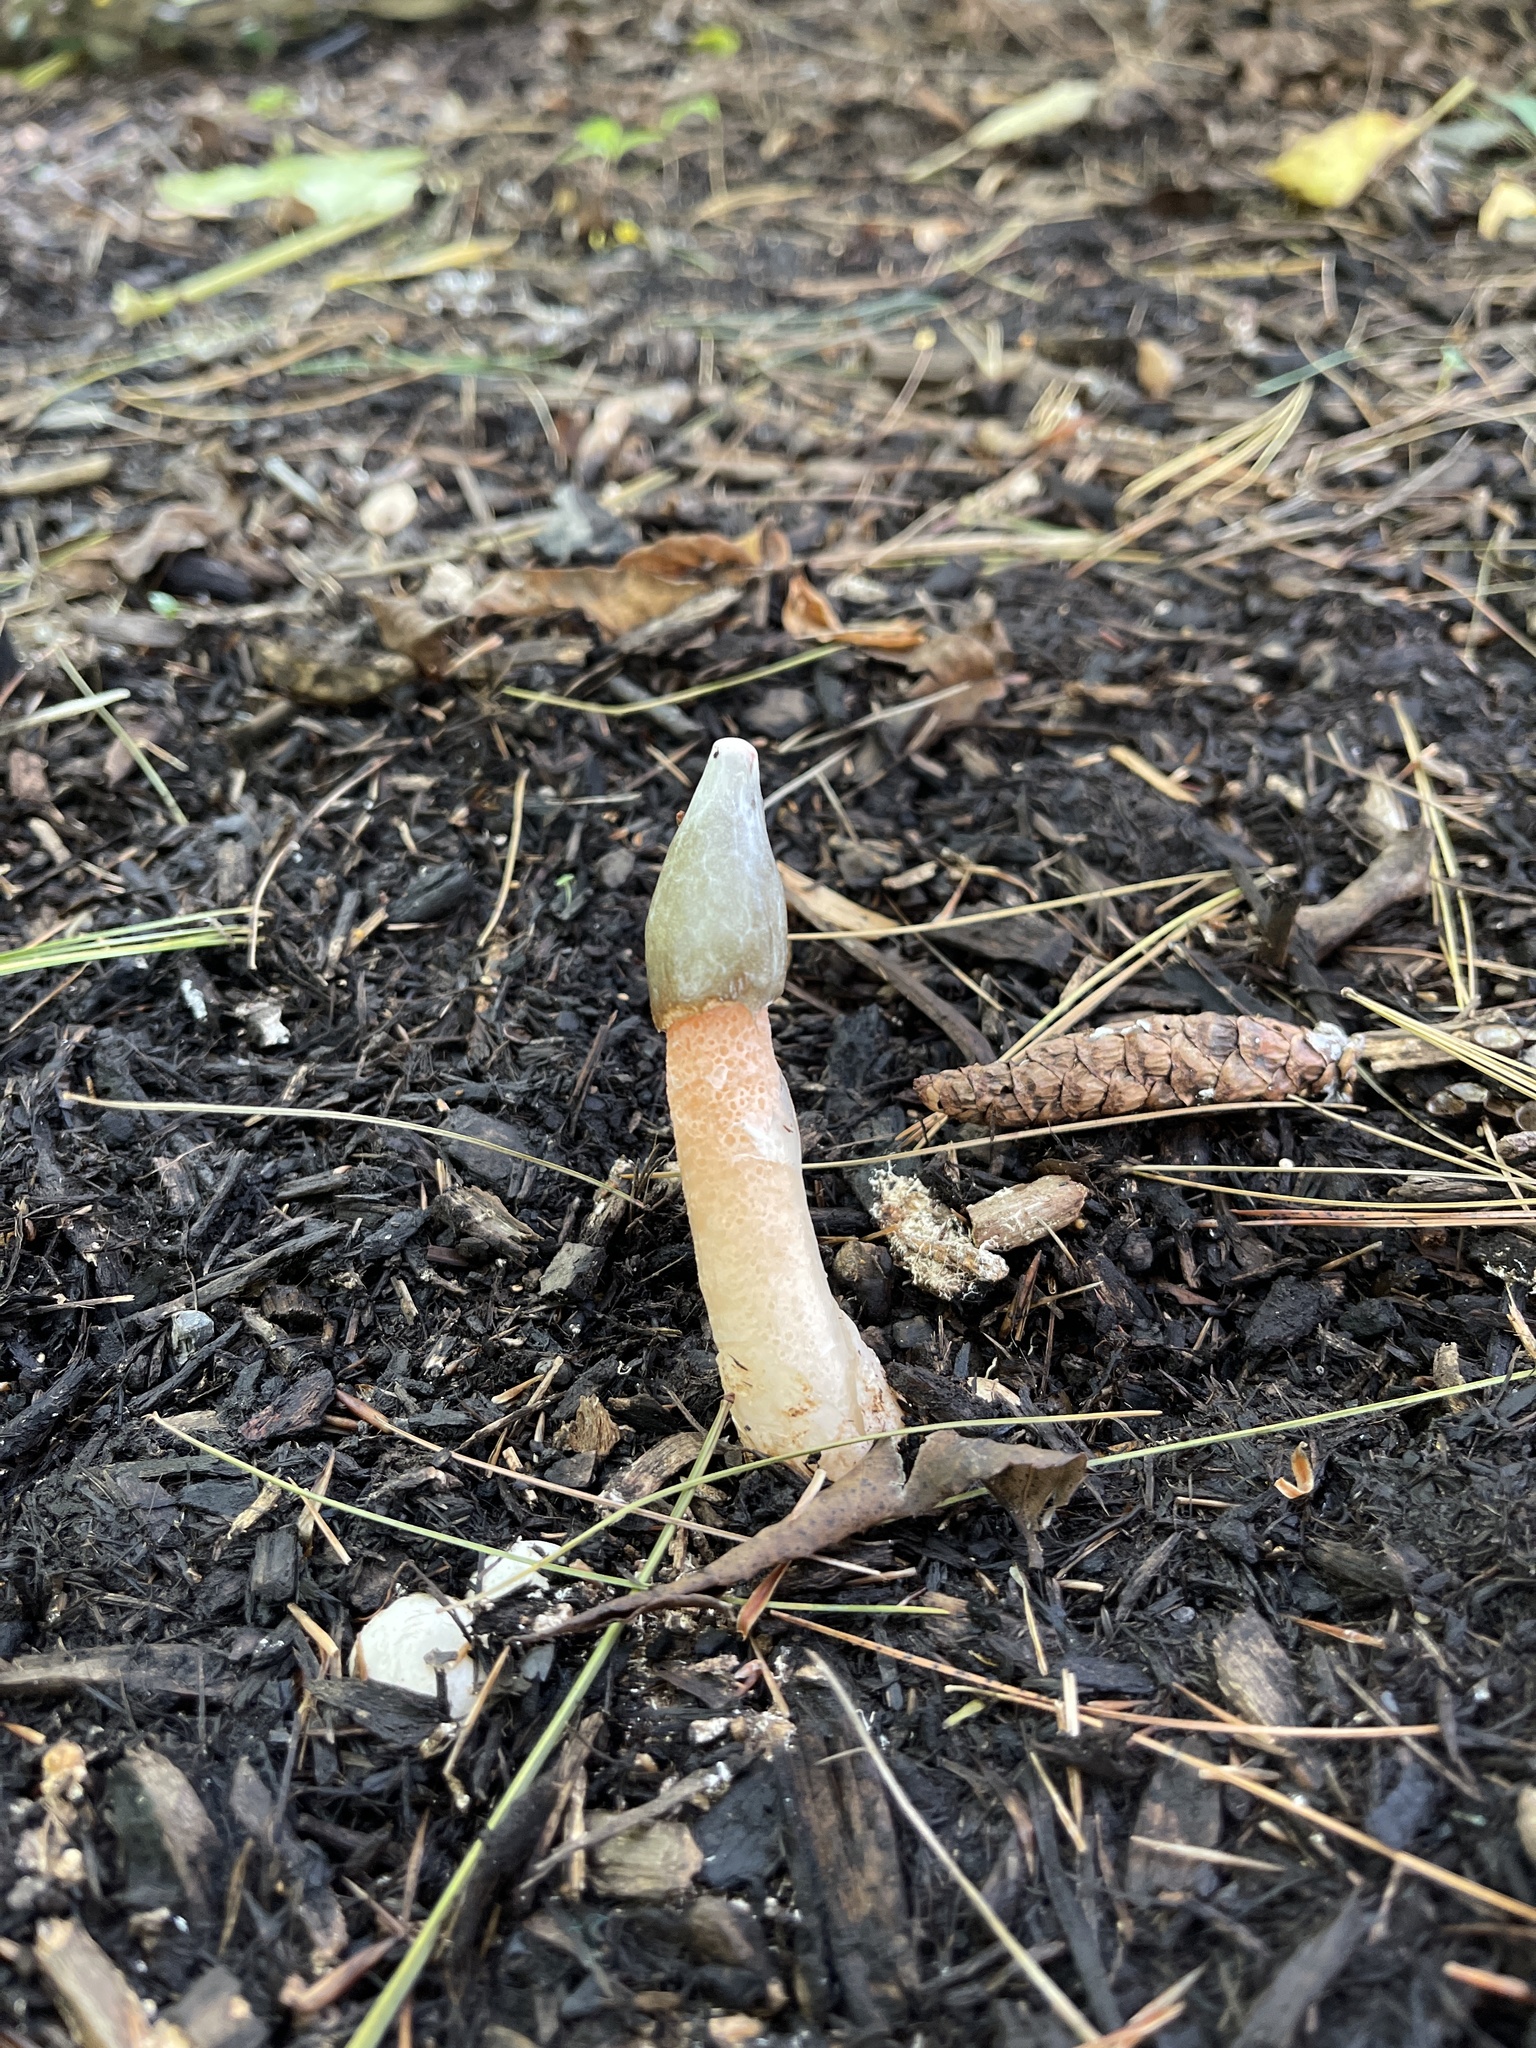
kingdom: Fungi
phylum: Basidiomycota
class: Agaricomycetes
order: Phallales
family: Phallaceae
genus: Phallus
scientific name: Phallus rugulosus
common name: Wrinkly stinkhorn
